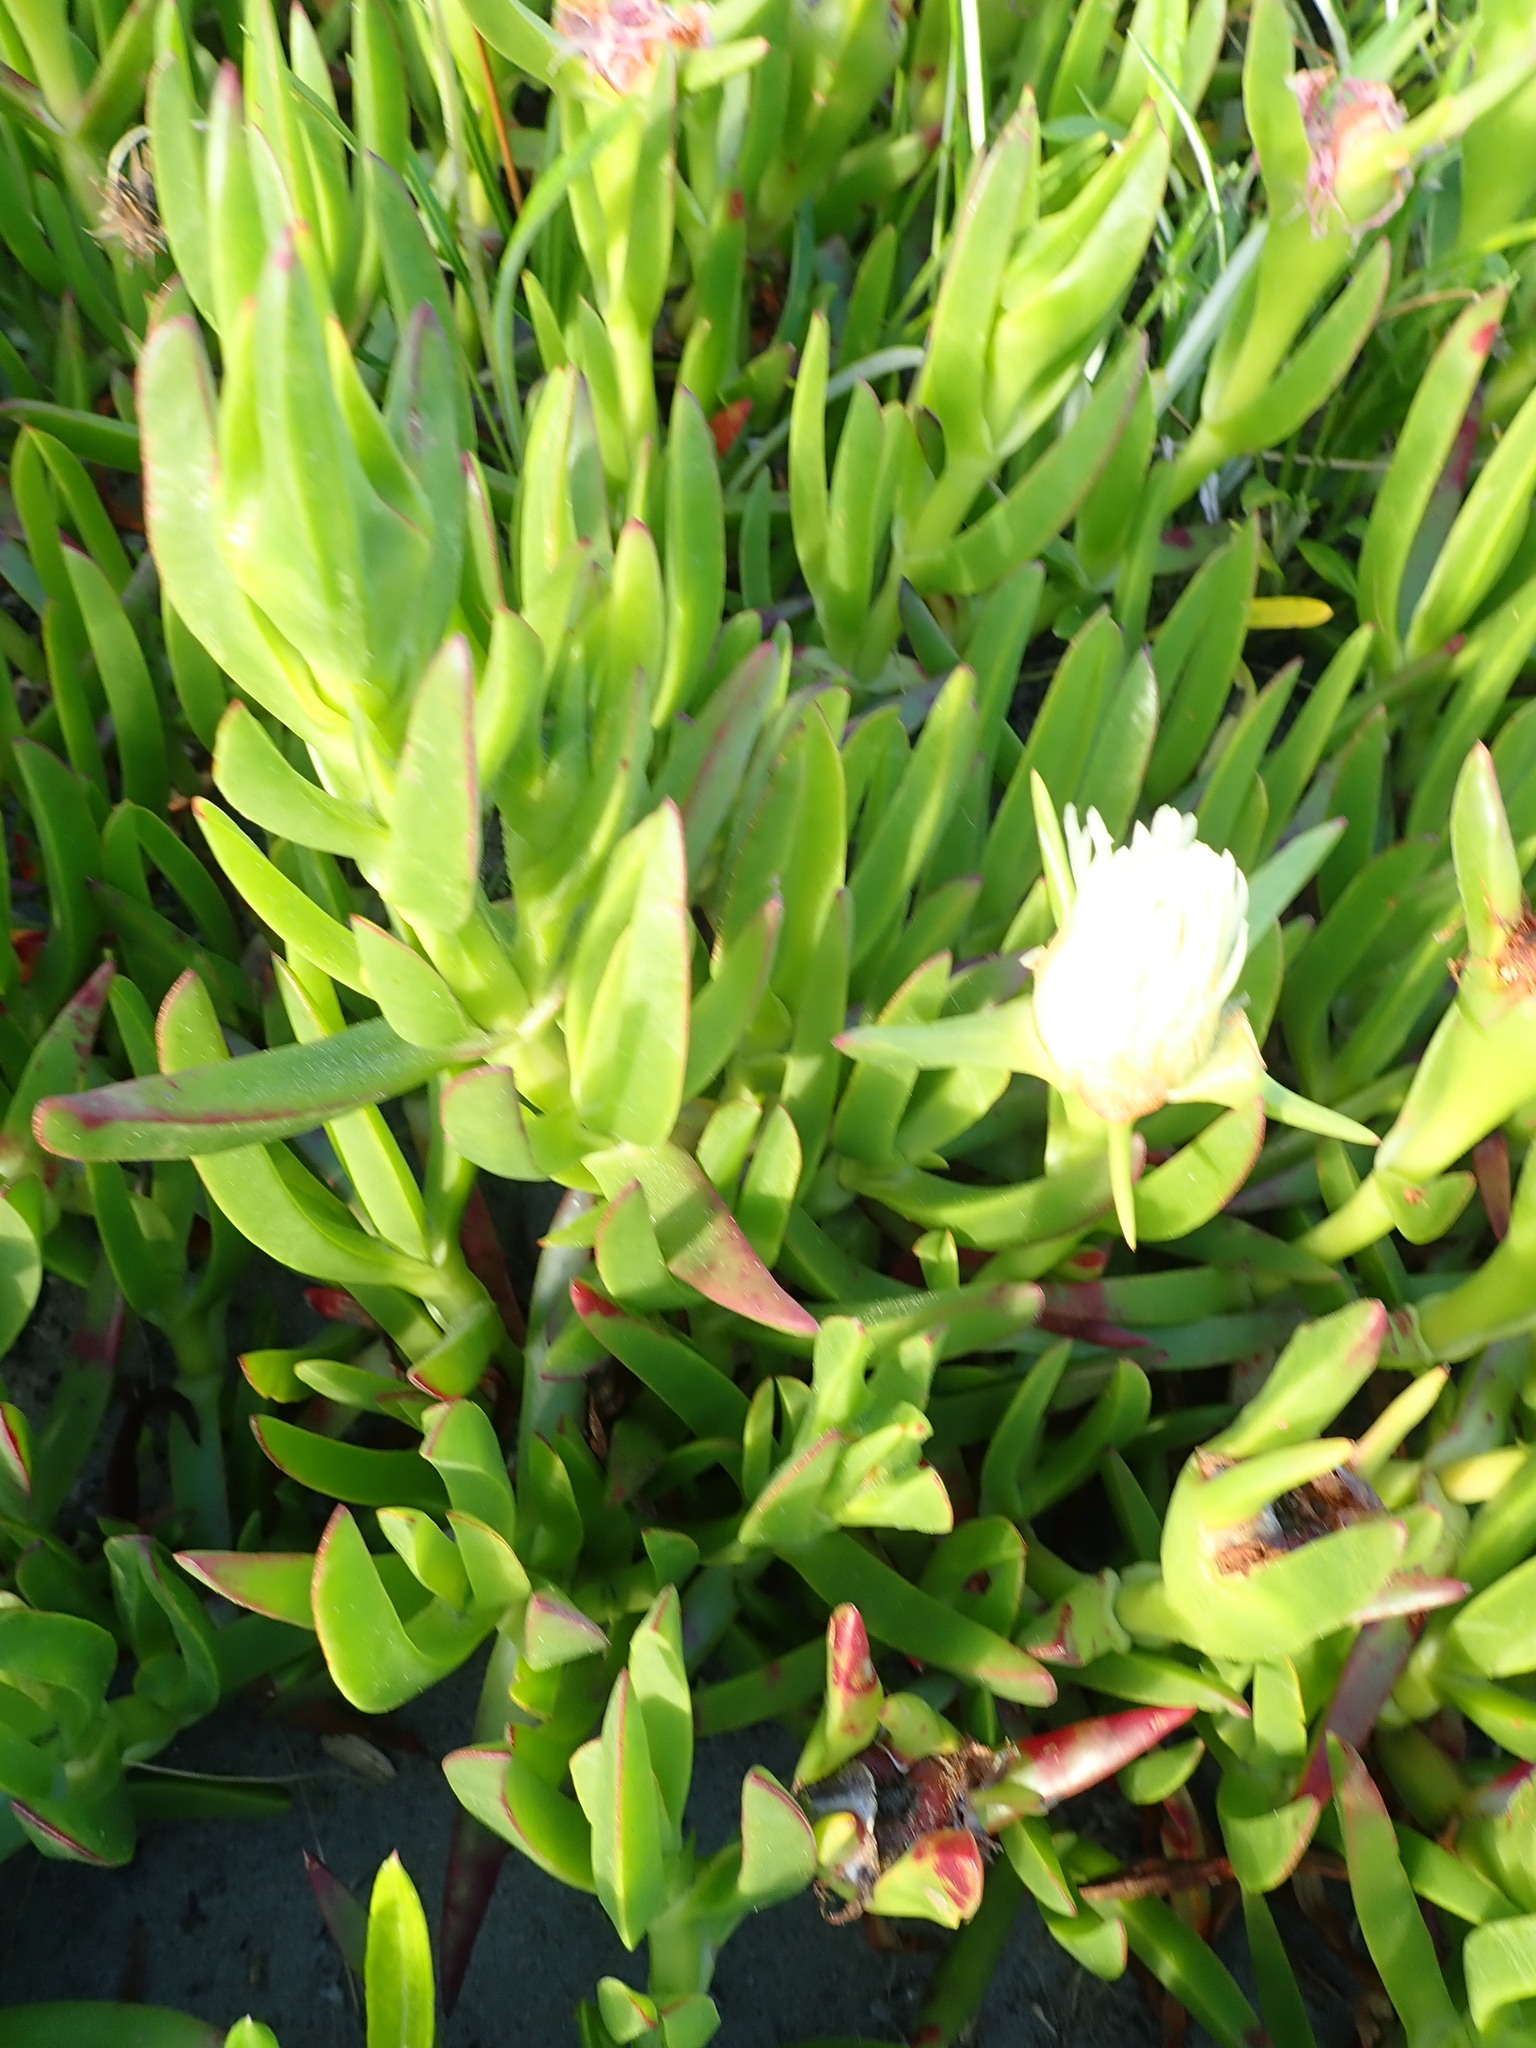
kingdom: Plantae
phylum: Tracheophyta
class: Magnoliopsida
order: Caryophyllales
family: Aizoaceae
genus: Carpobrotus
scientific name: Carpobrotus edulis
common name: Hottentot-fig
